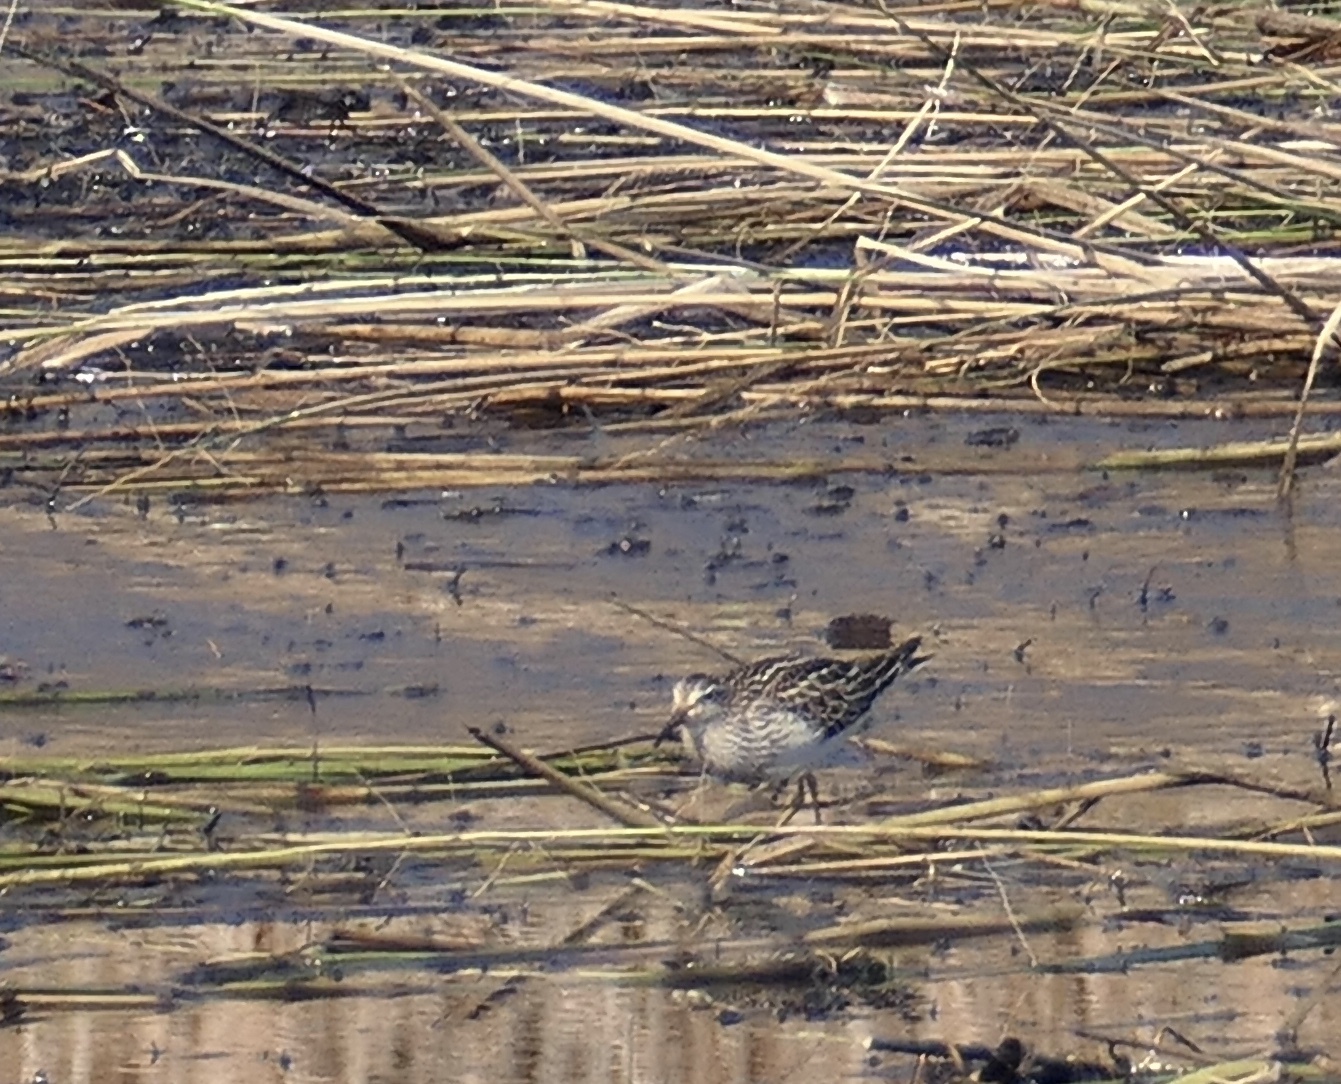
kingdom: Animalia
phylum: Chordata
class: Aves
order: Charadriiformes
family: Scolopacidae
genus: Calidris
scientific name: Calidris melanotos
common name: Pectoral sandpiper
